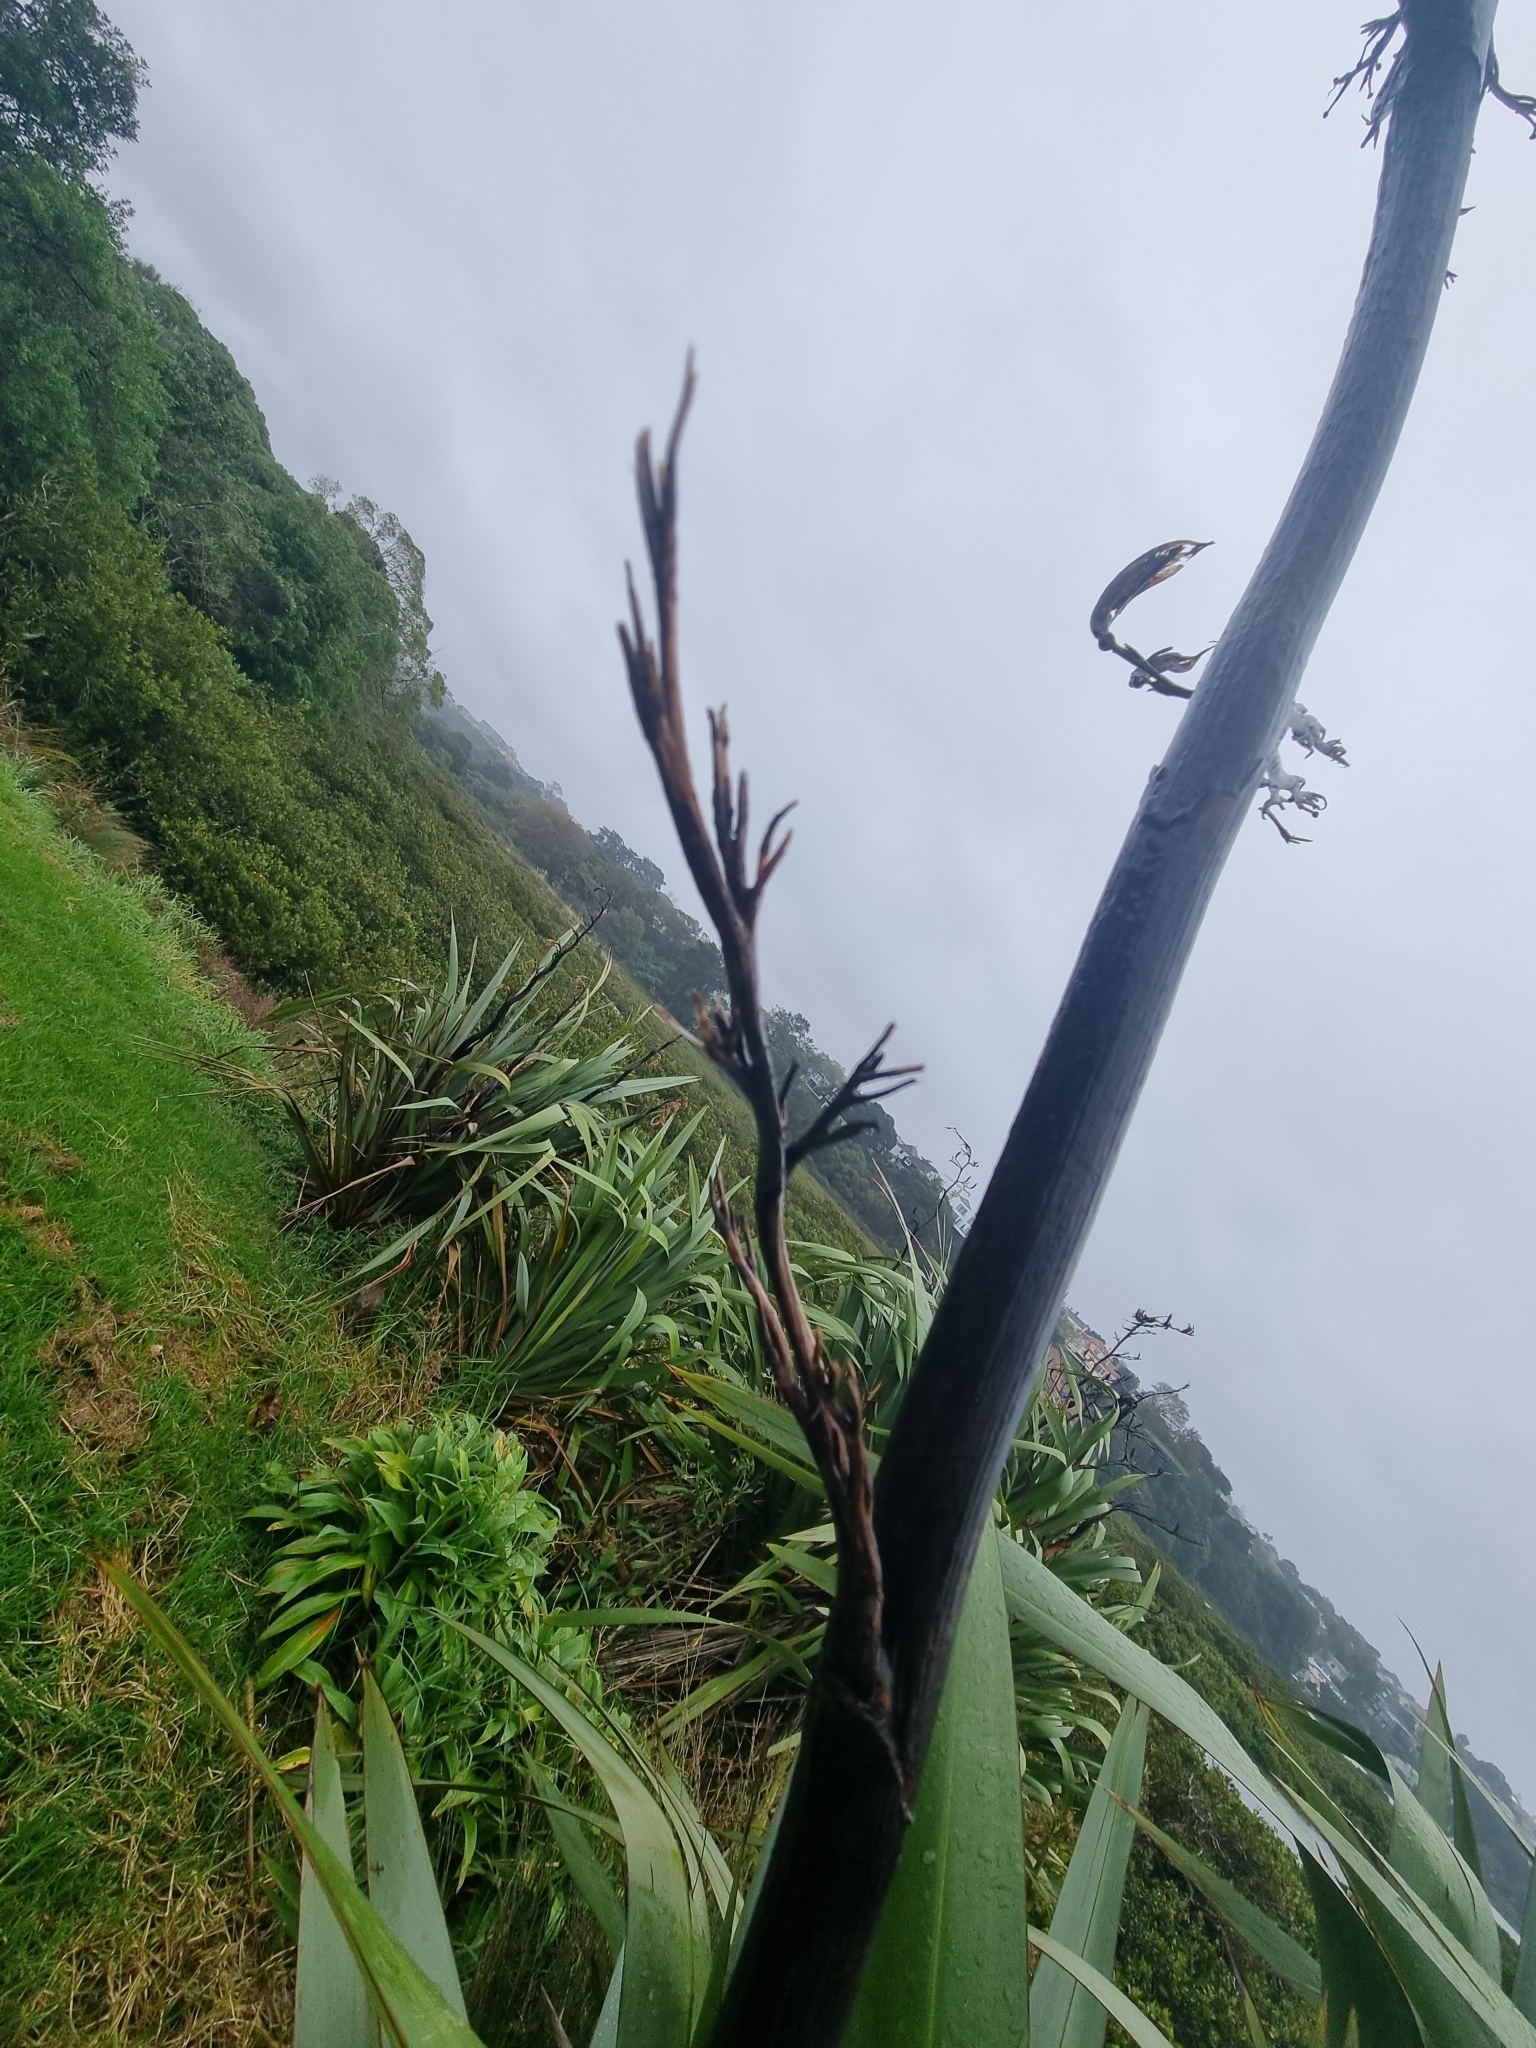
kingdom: Plantae
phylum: Tracheophyta
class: Liliopsida
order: Asparagales
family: Asphodelaceae
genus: Phormium
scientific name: Phormium tenax
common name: New zealand flax
